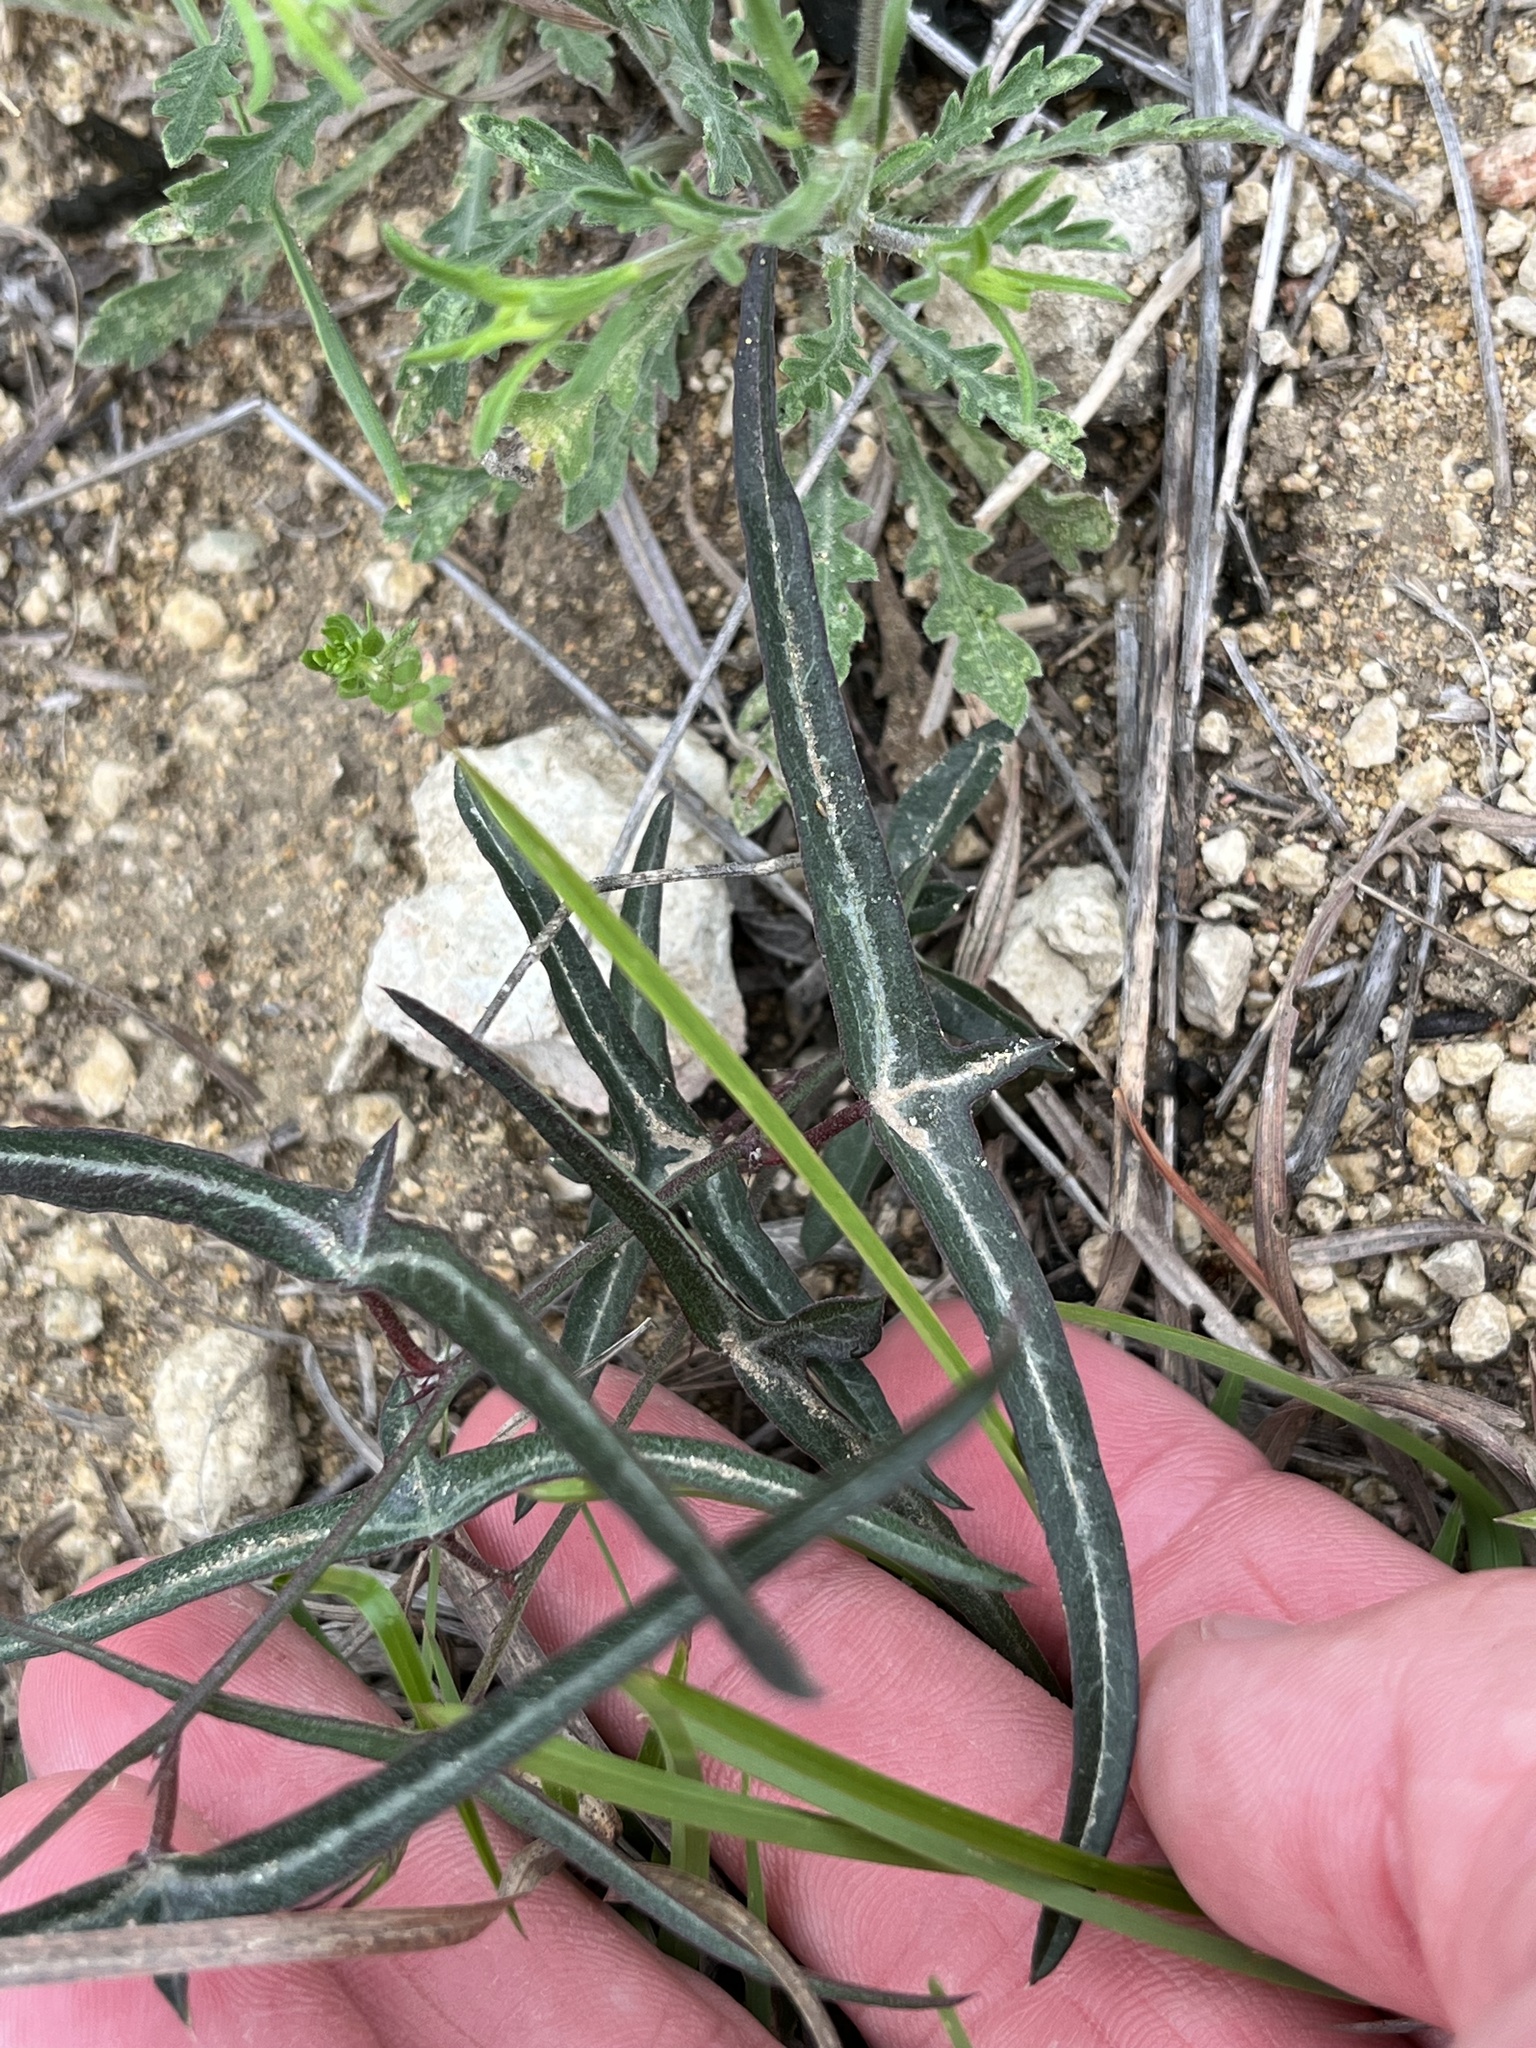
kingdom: Plantae
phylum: Tracheophyta
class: Magnoliopsida
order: Malpighiales
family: Passifloraceae
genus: Passiflora
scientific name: Passiflora tenuiloba
